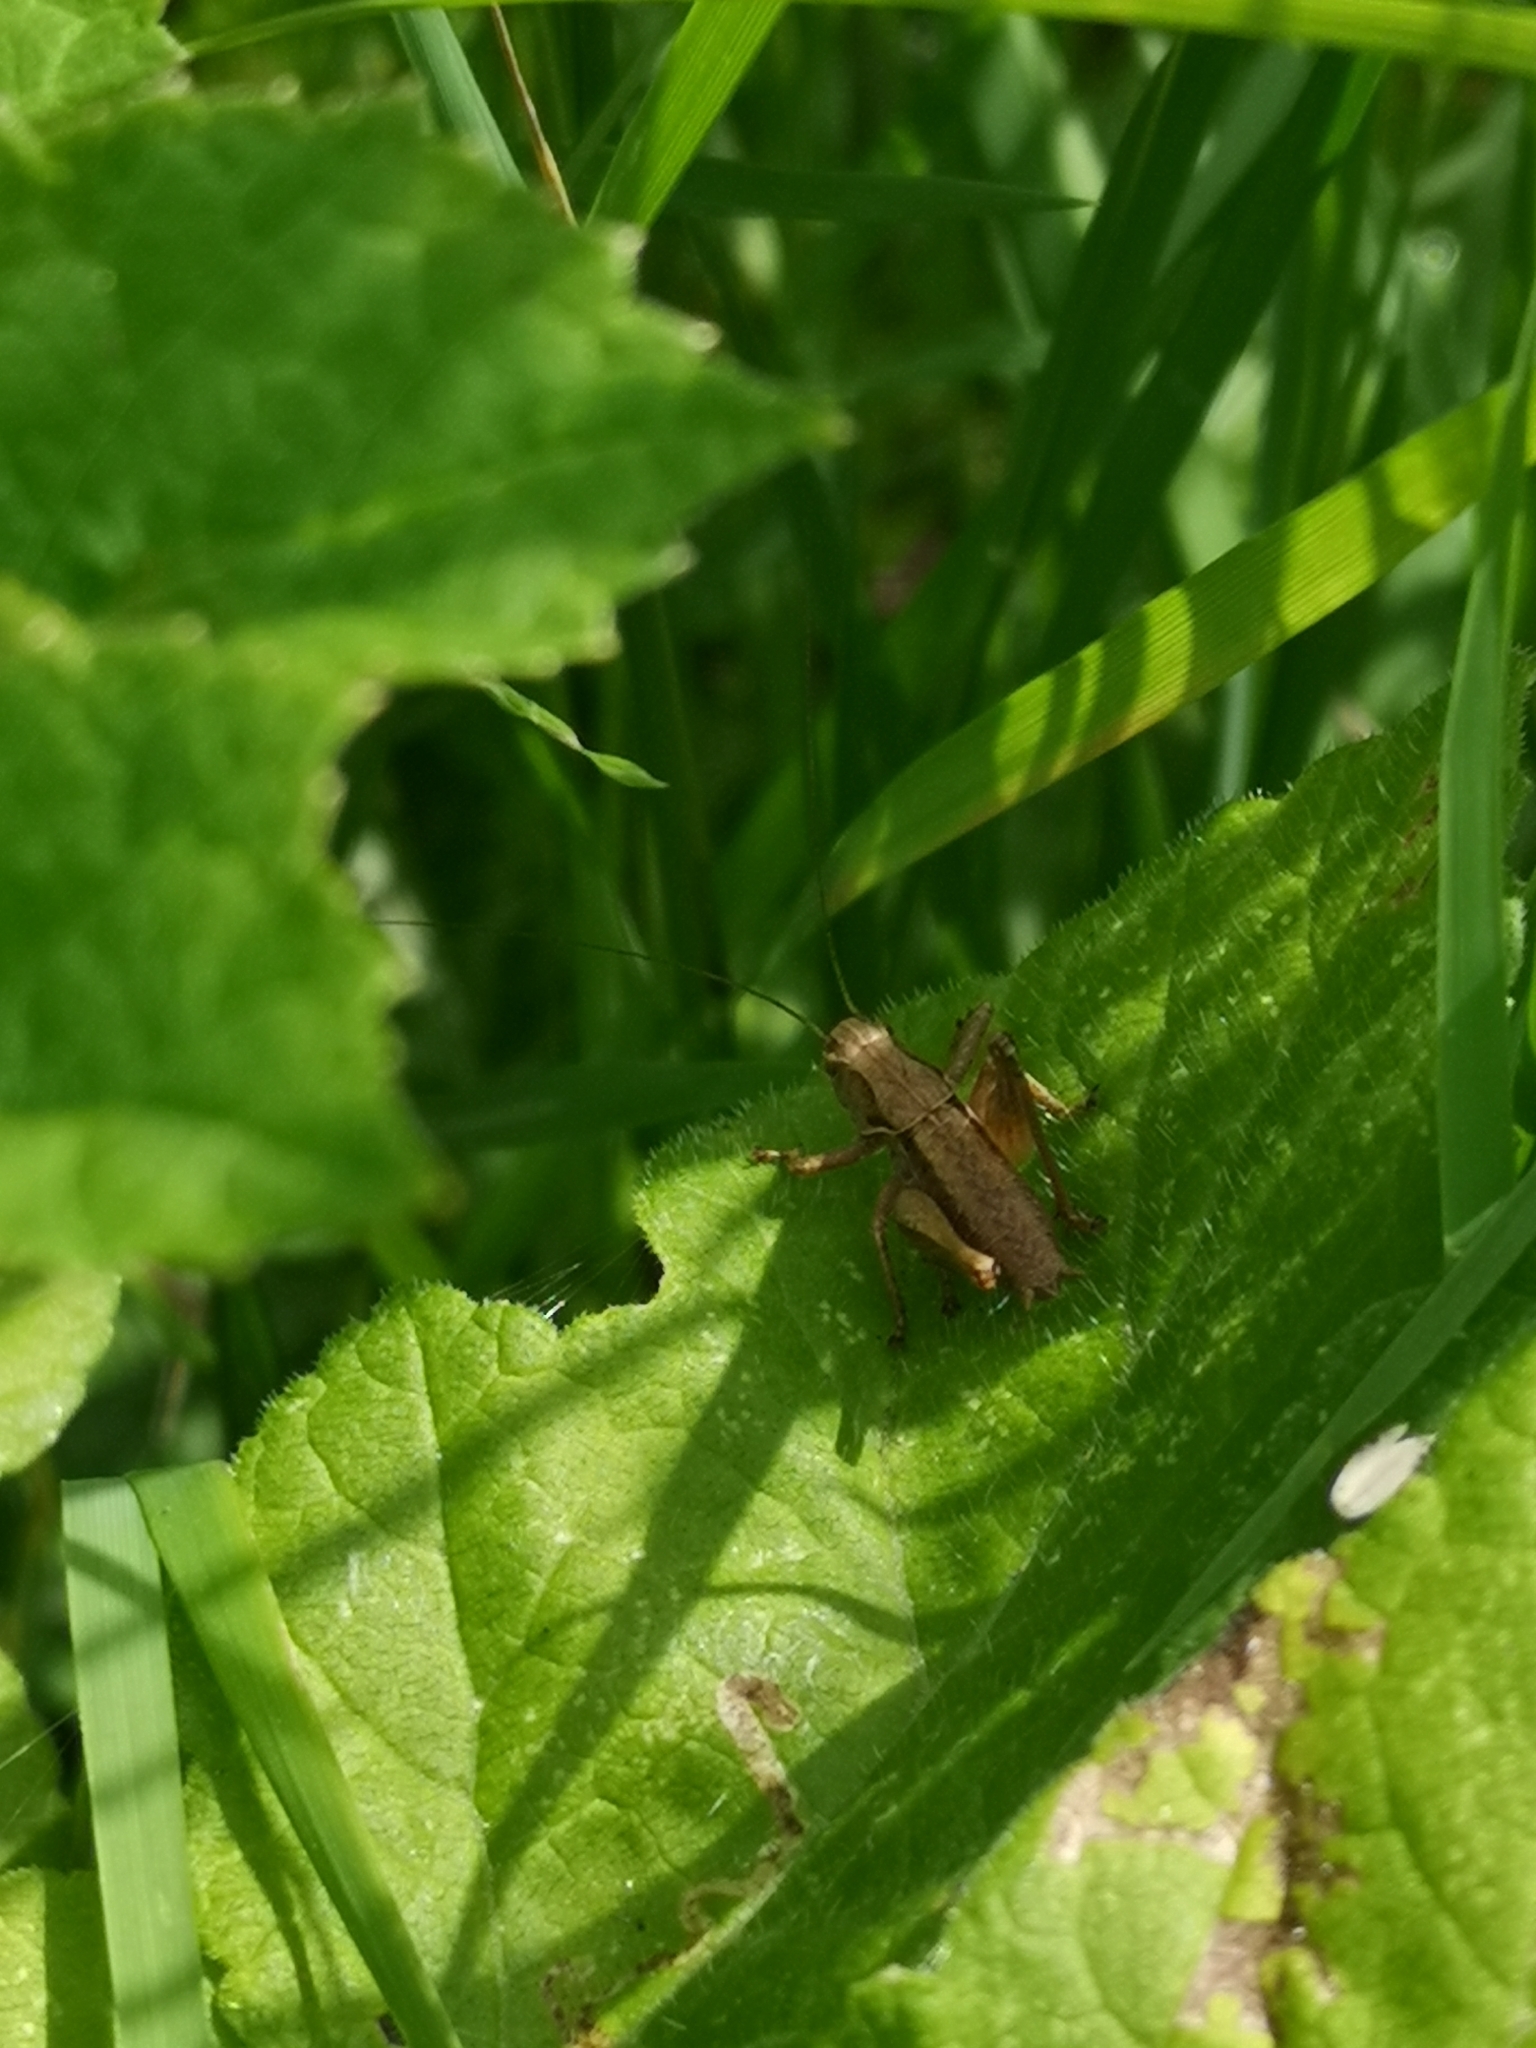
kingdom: Animalia
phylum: Arthropoda
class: Insecta
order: Orthoptera
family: Tettigoniidae
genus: Pholidoptera
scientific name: Pholidoptera griseoaptera
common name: Dark bush-cricket
